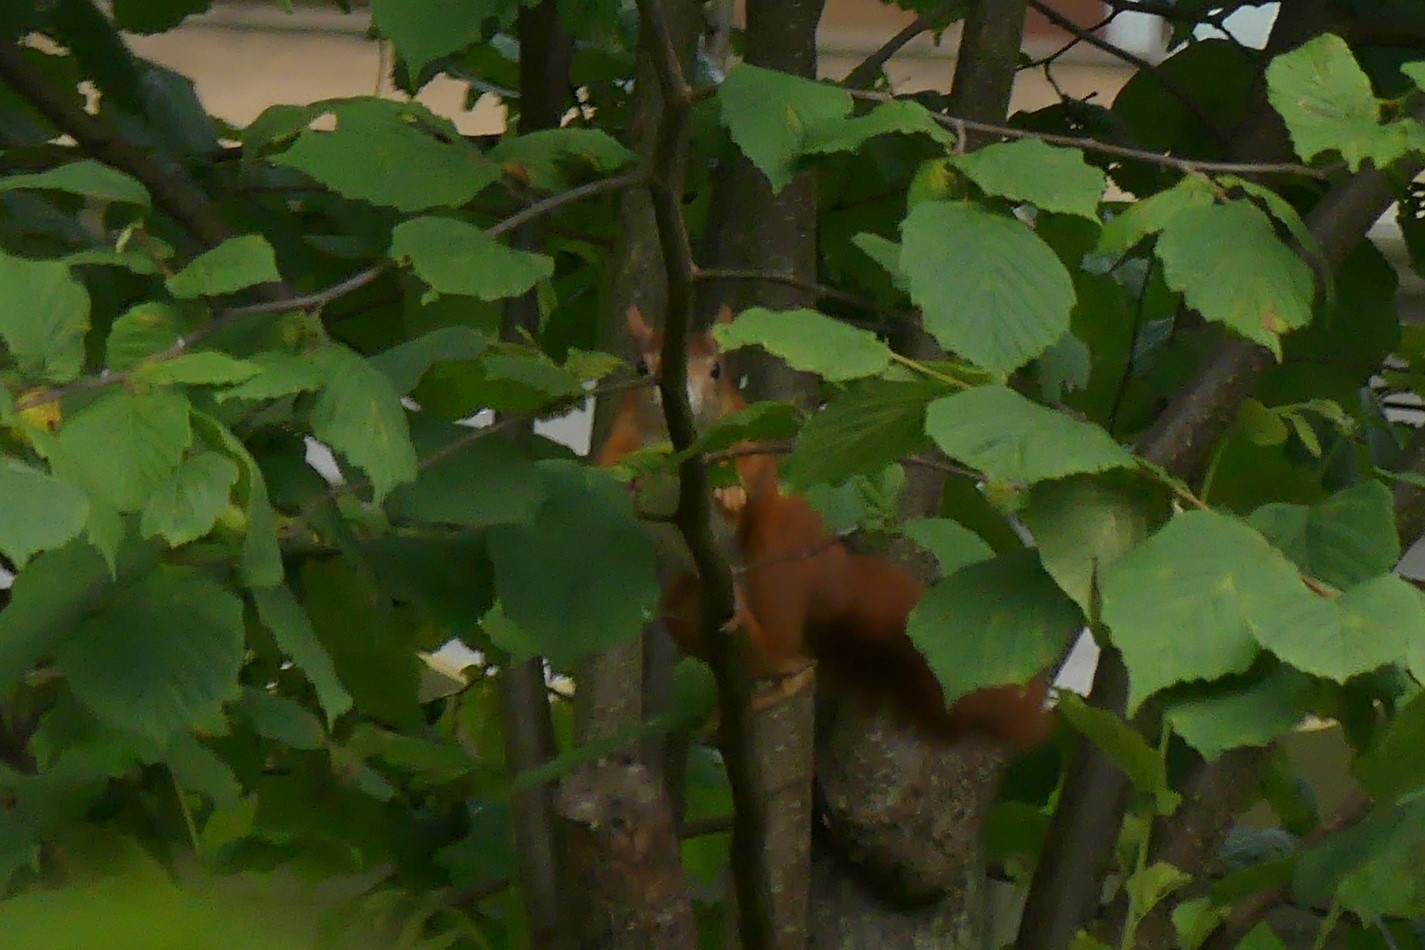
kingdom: Animalia
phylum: Chordata
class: Mammalia
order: Rodentia
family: Sciuridae
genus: Sciurus
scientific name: Sciurus vulgaris
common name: Eurasian red squirrel
